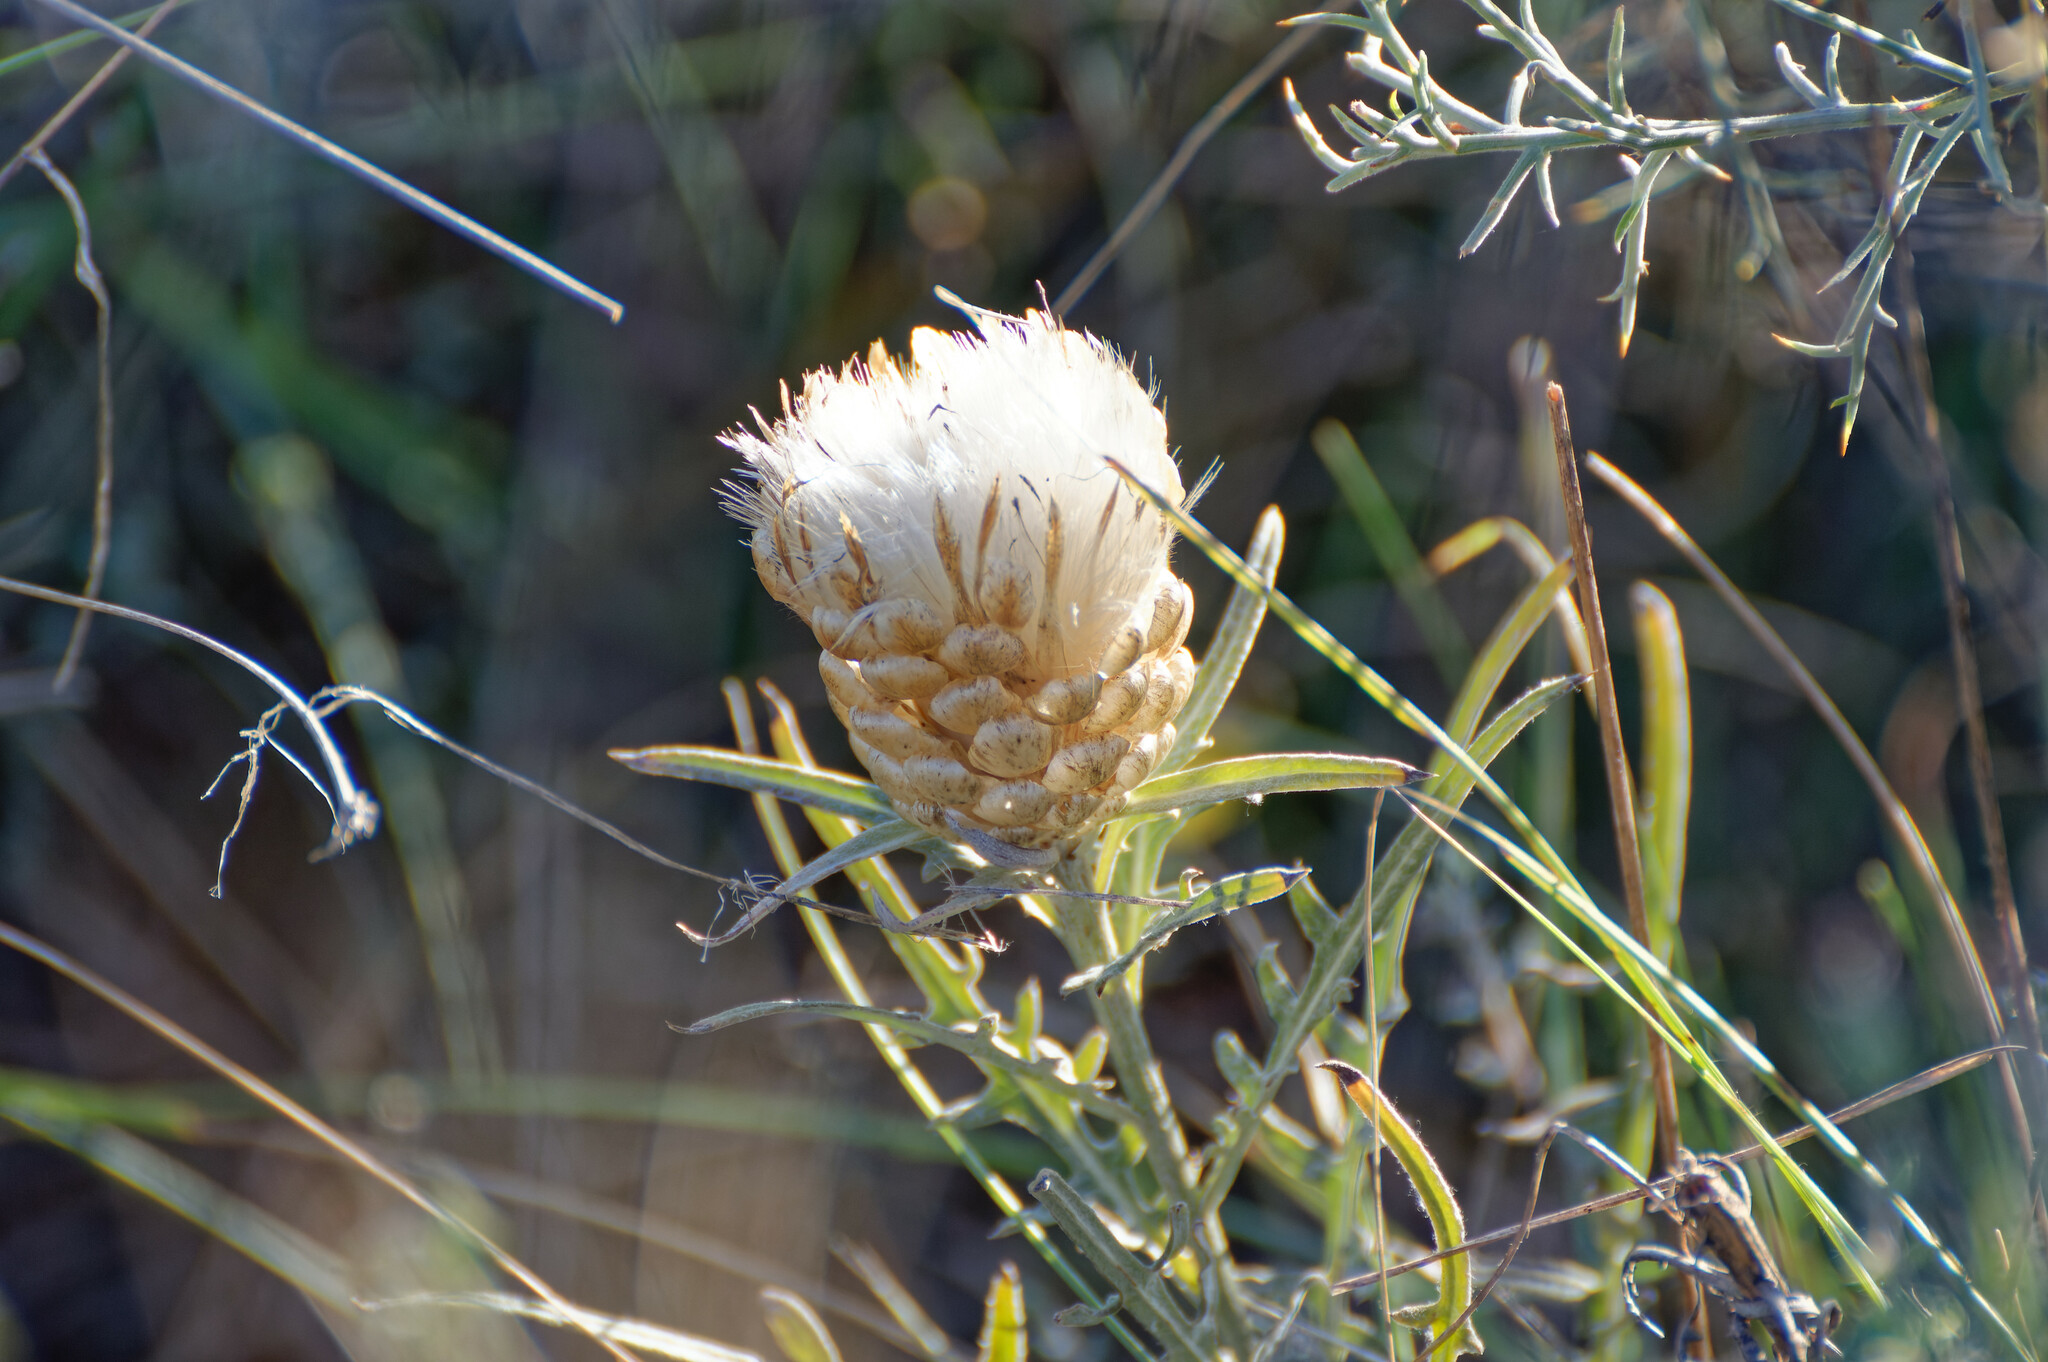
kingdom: Plantae
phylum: Tracheophyta
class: Magnoliopsida
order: Asterales
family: Asteraceae
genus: Leuzea
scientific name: Leuzea conifera
